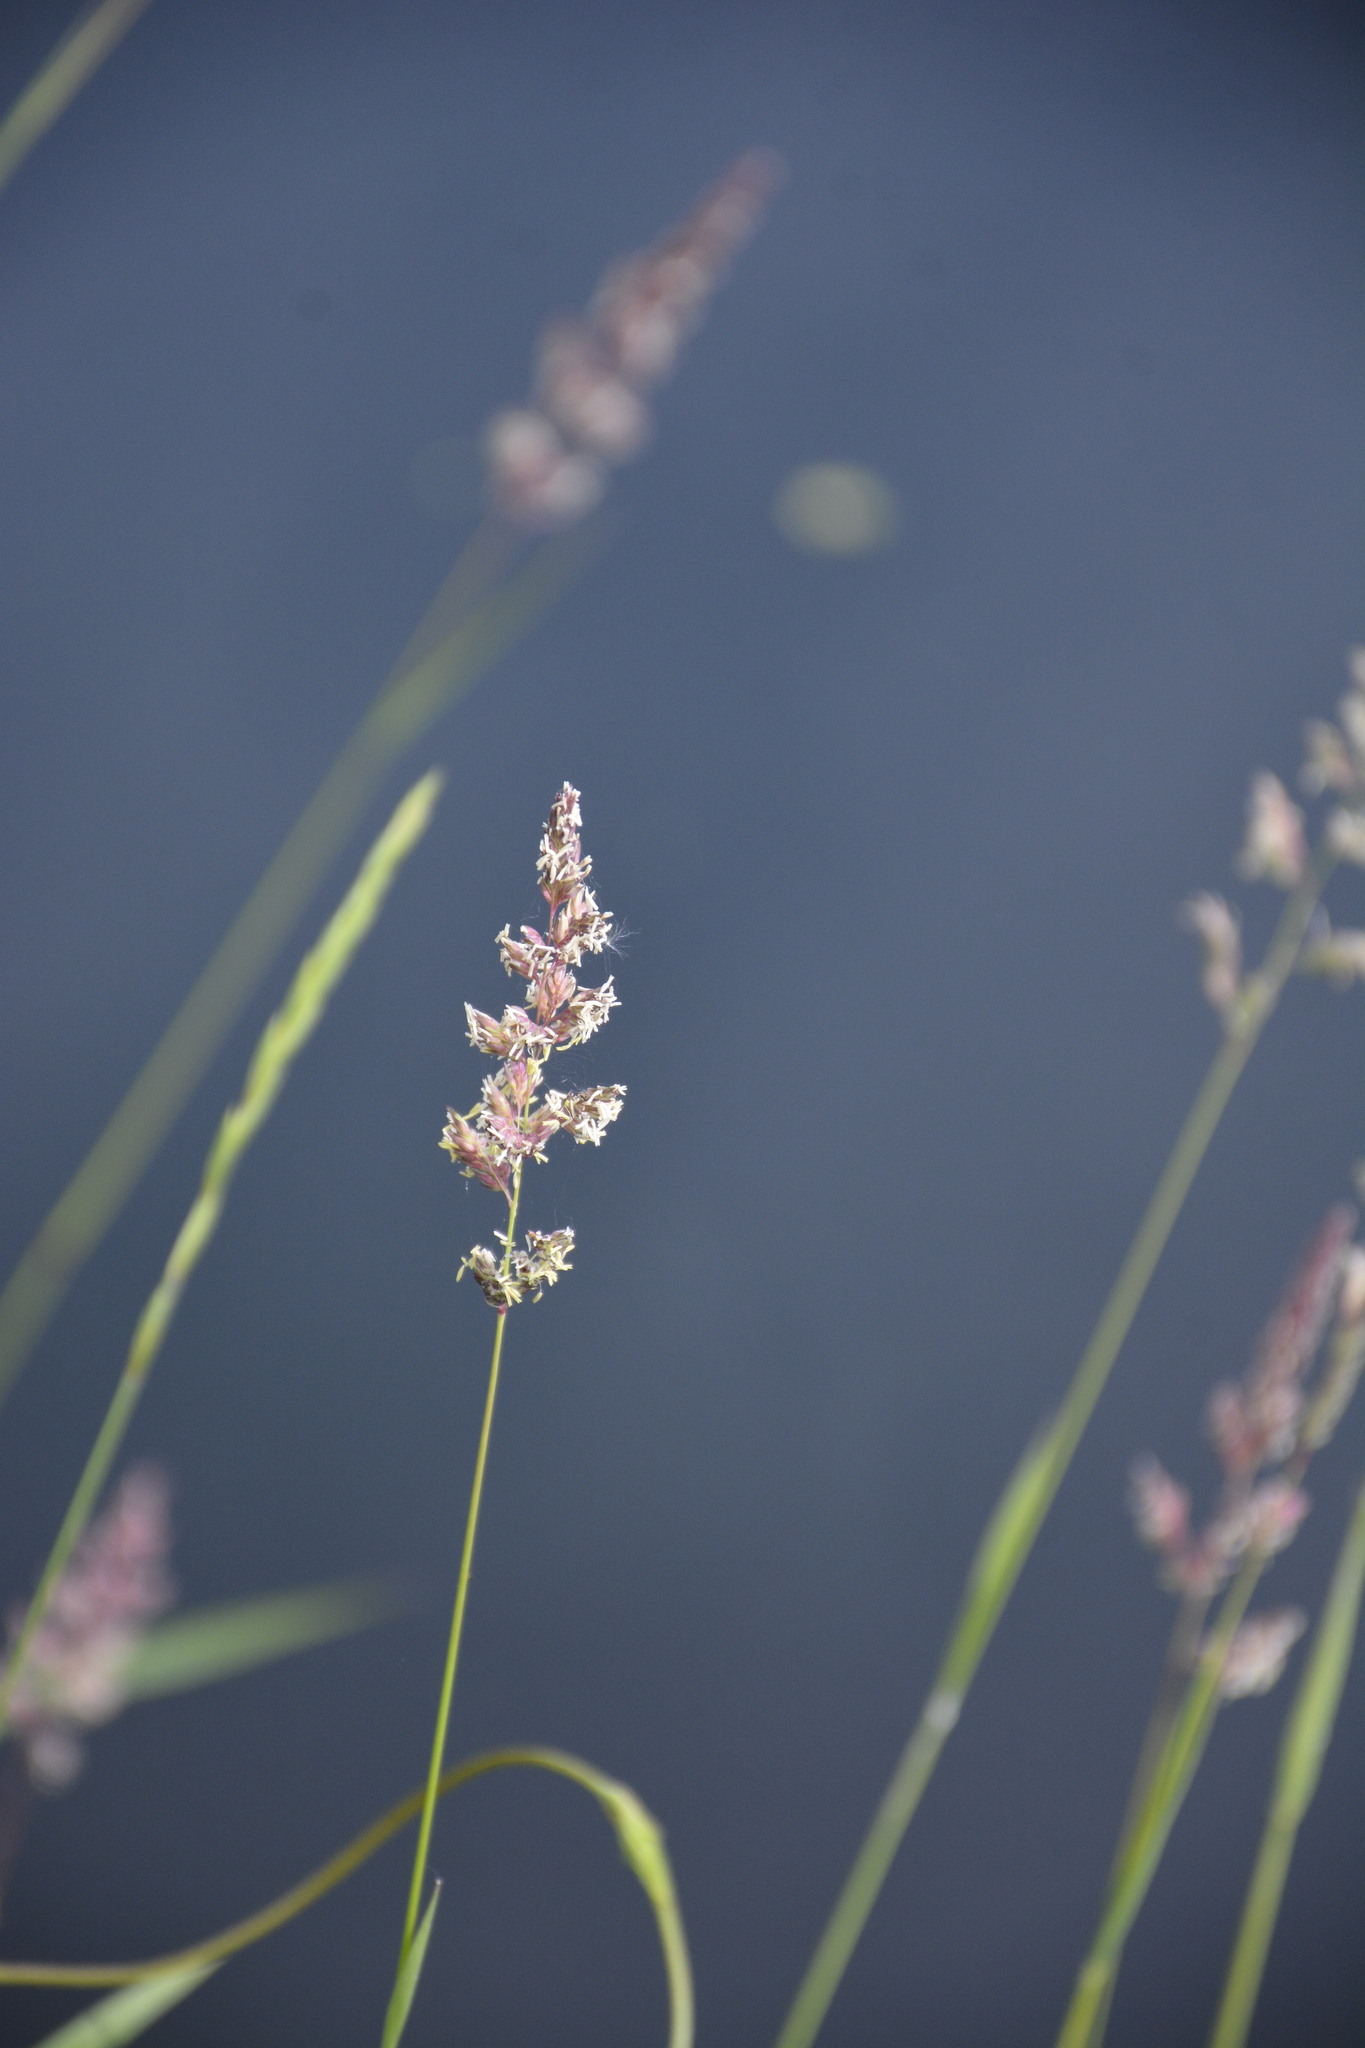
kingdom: Plantae
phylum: Tracheophyta
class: Liliopsida
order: Poales
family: Poaceae
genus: Phalaris
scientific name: Phalaris arundinacea
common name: Reed canary-grass
